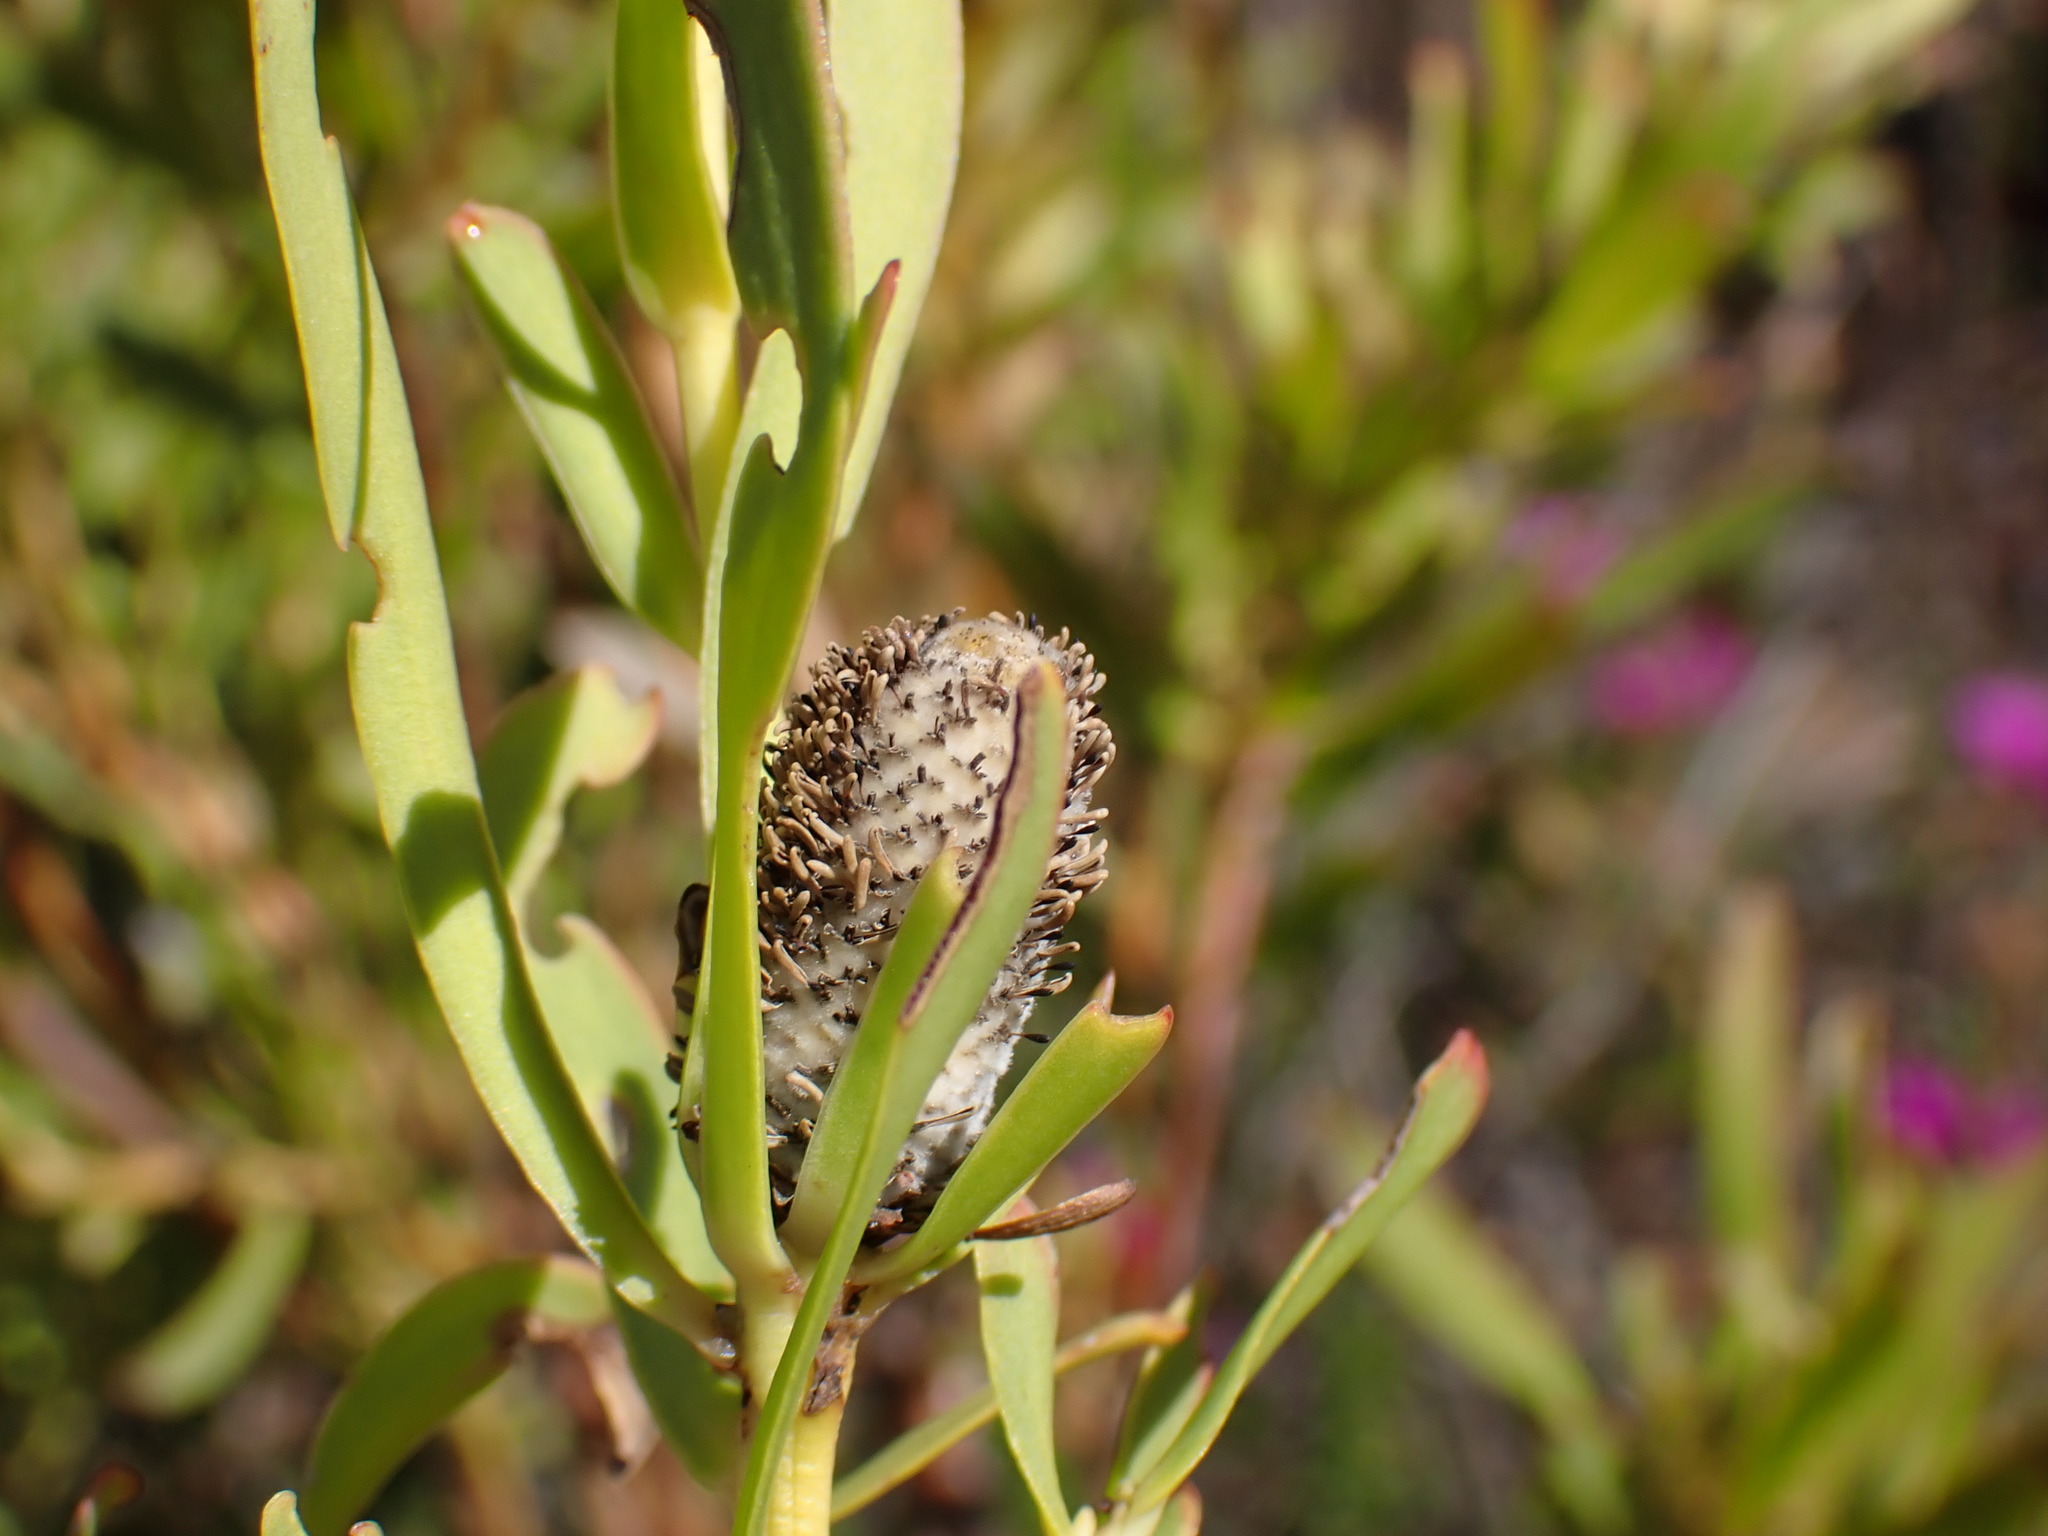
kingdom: Plantae
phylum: Tracheophyta
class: Magnoliopsida
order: Proteales
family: Proteaceae
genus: Leucospermum
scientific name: Leucospermum cuneiforme
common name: Common pincushion
